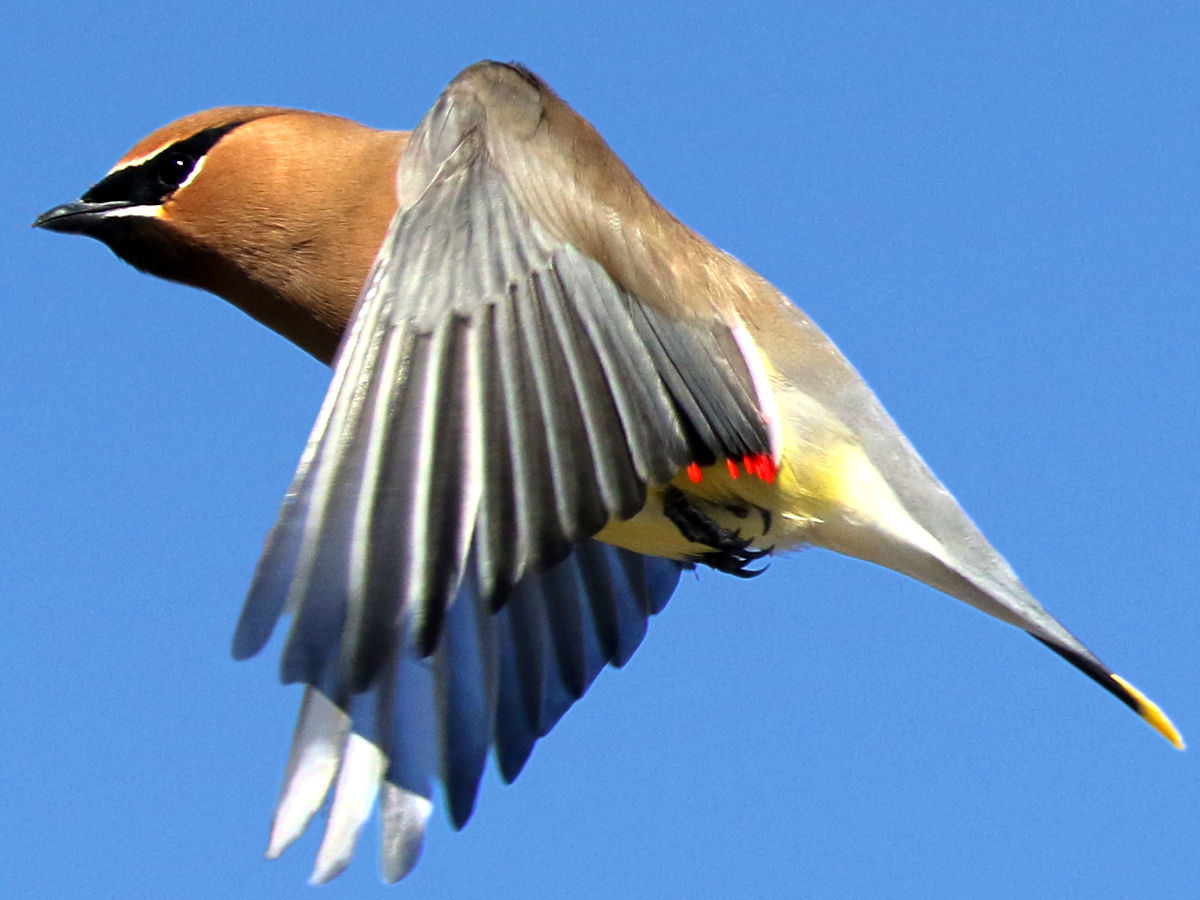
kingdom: Animalia
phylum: Chordata
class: Aves
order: Passeriformes
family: Bombycillidae
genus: Bombycilla
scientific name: Bombycilla cedrorum
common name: Cedar waxwing
